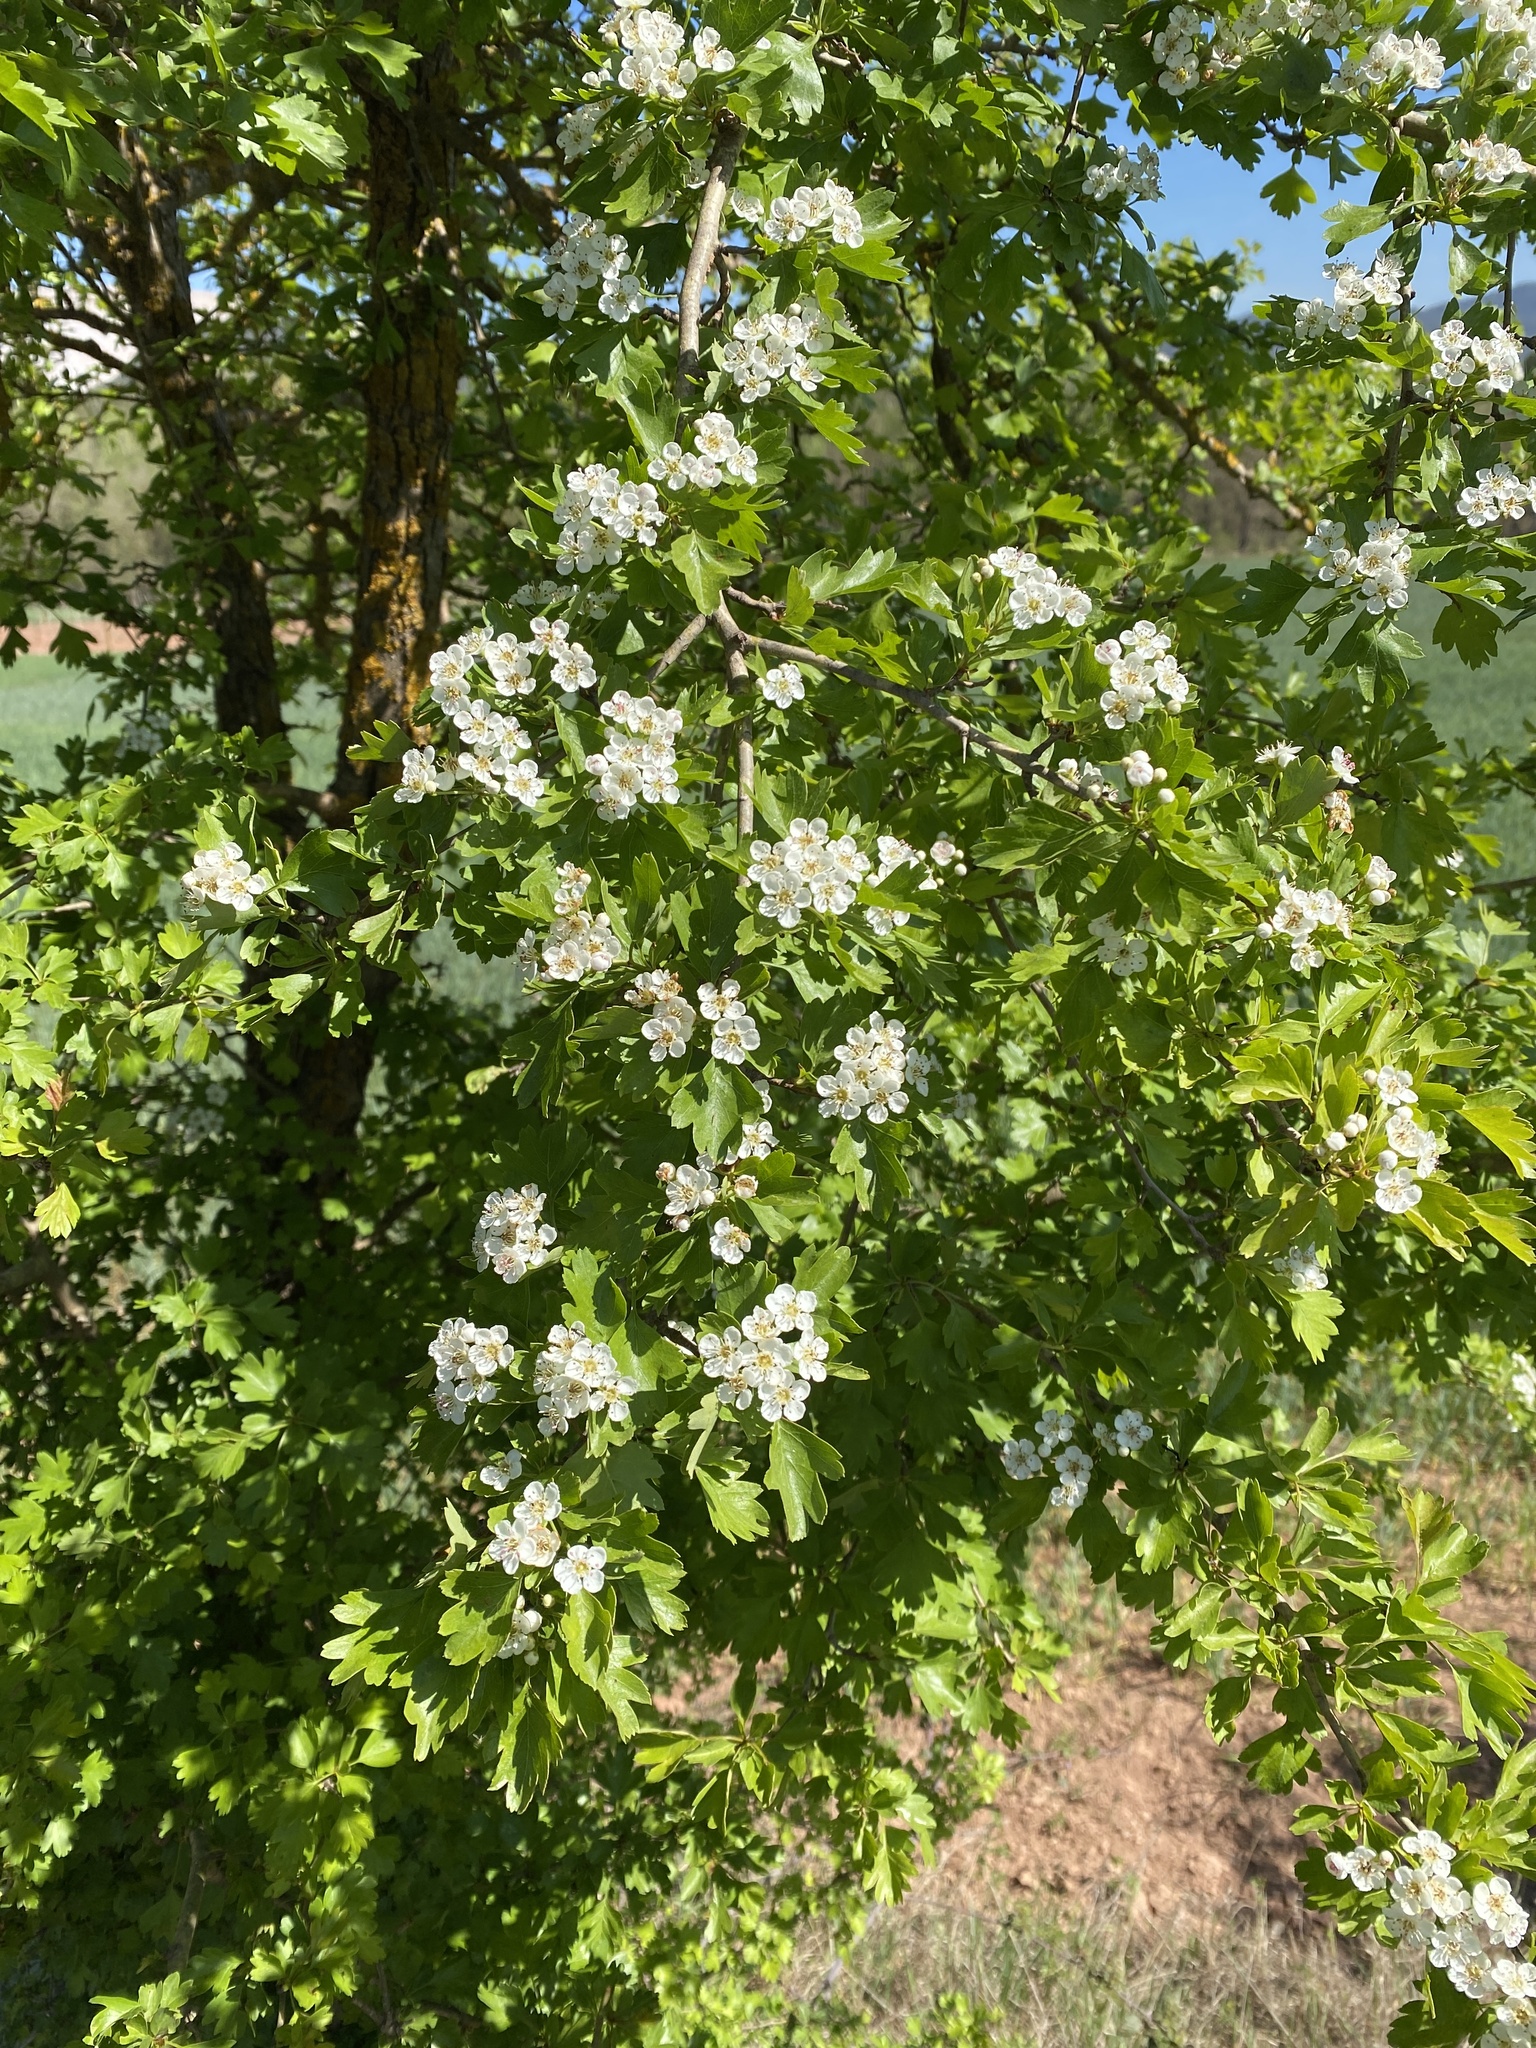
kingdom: Plantae
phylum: Tracheophyta
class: Magnoliopsida
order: Rosales
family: Rosaceae
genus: Crataegus
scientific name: Crataegus monogyna
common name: Hawthorn
